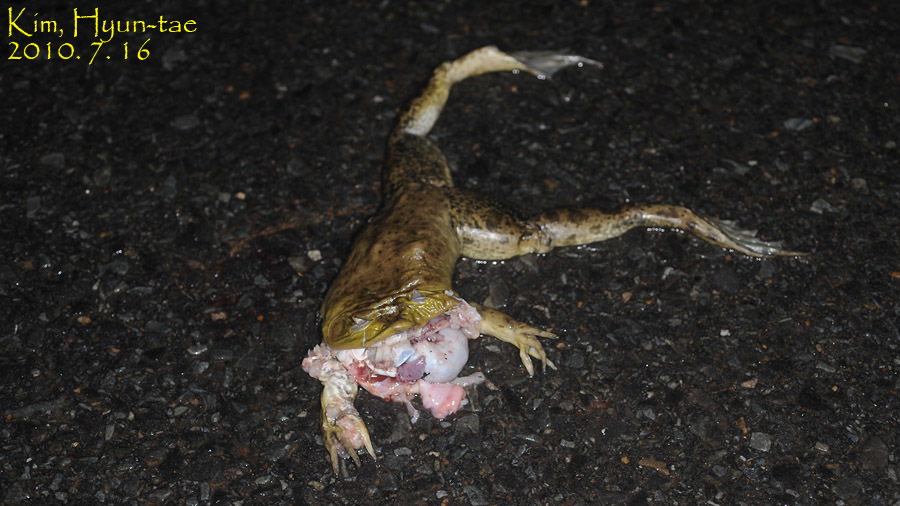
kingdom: Animalia
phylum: Chordata
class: Amphibia
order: Anura
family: Ranidae
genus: Lithobates
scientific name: Lithobates catesbeianus
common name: American bullfrog
